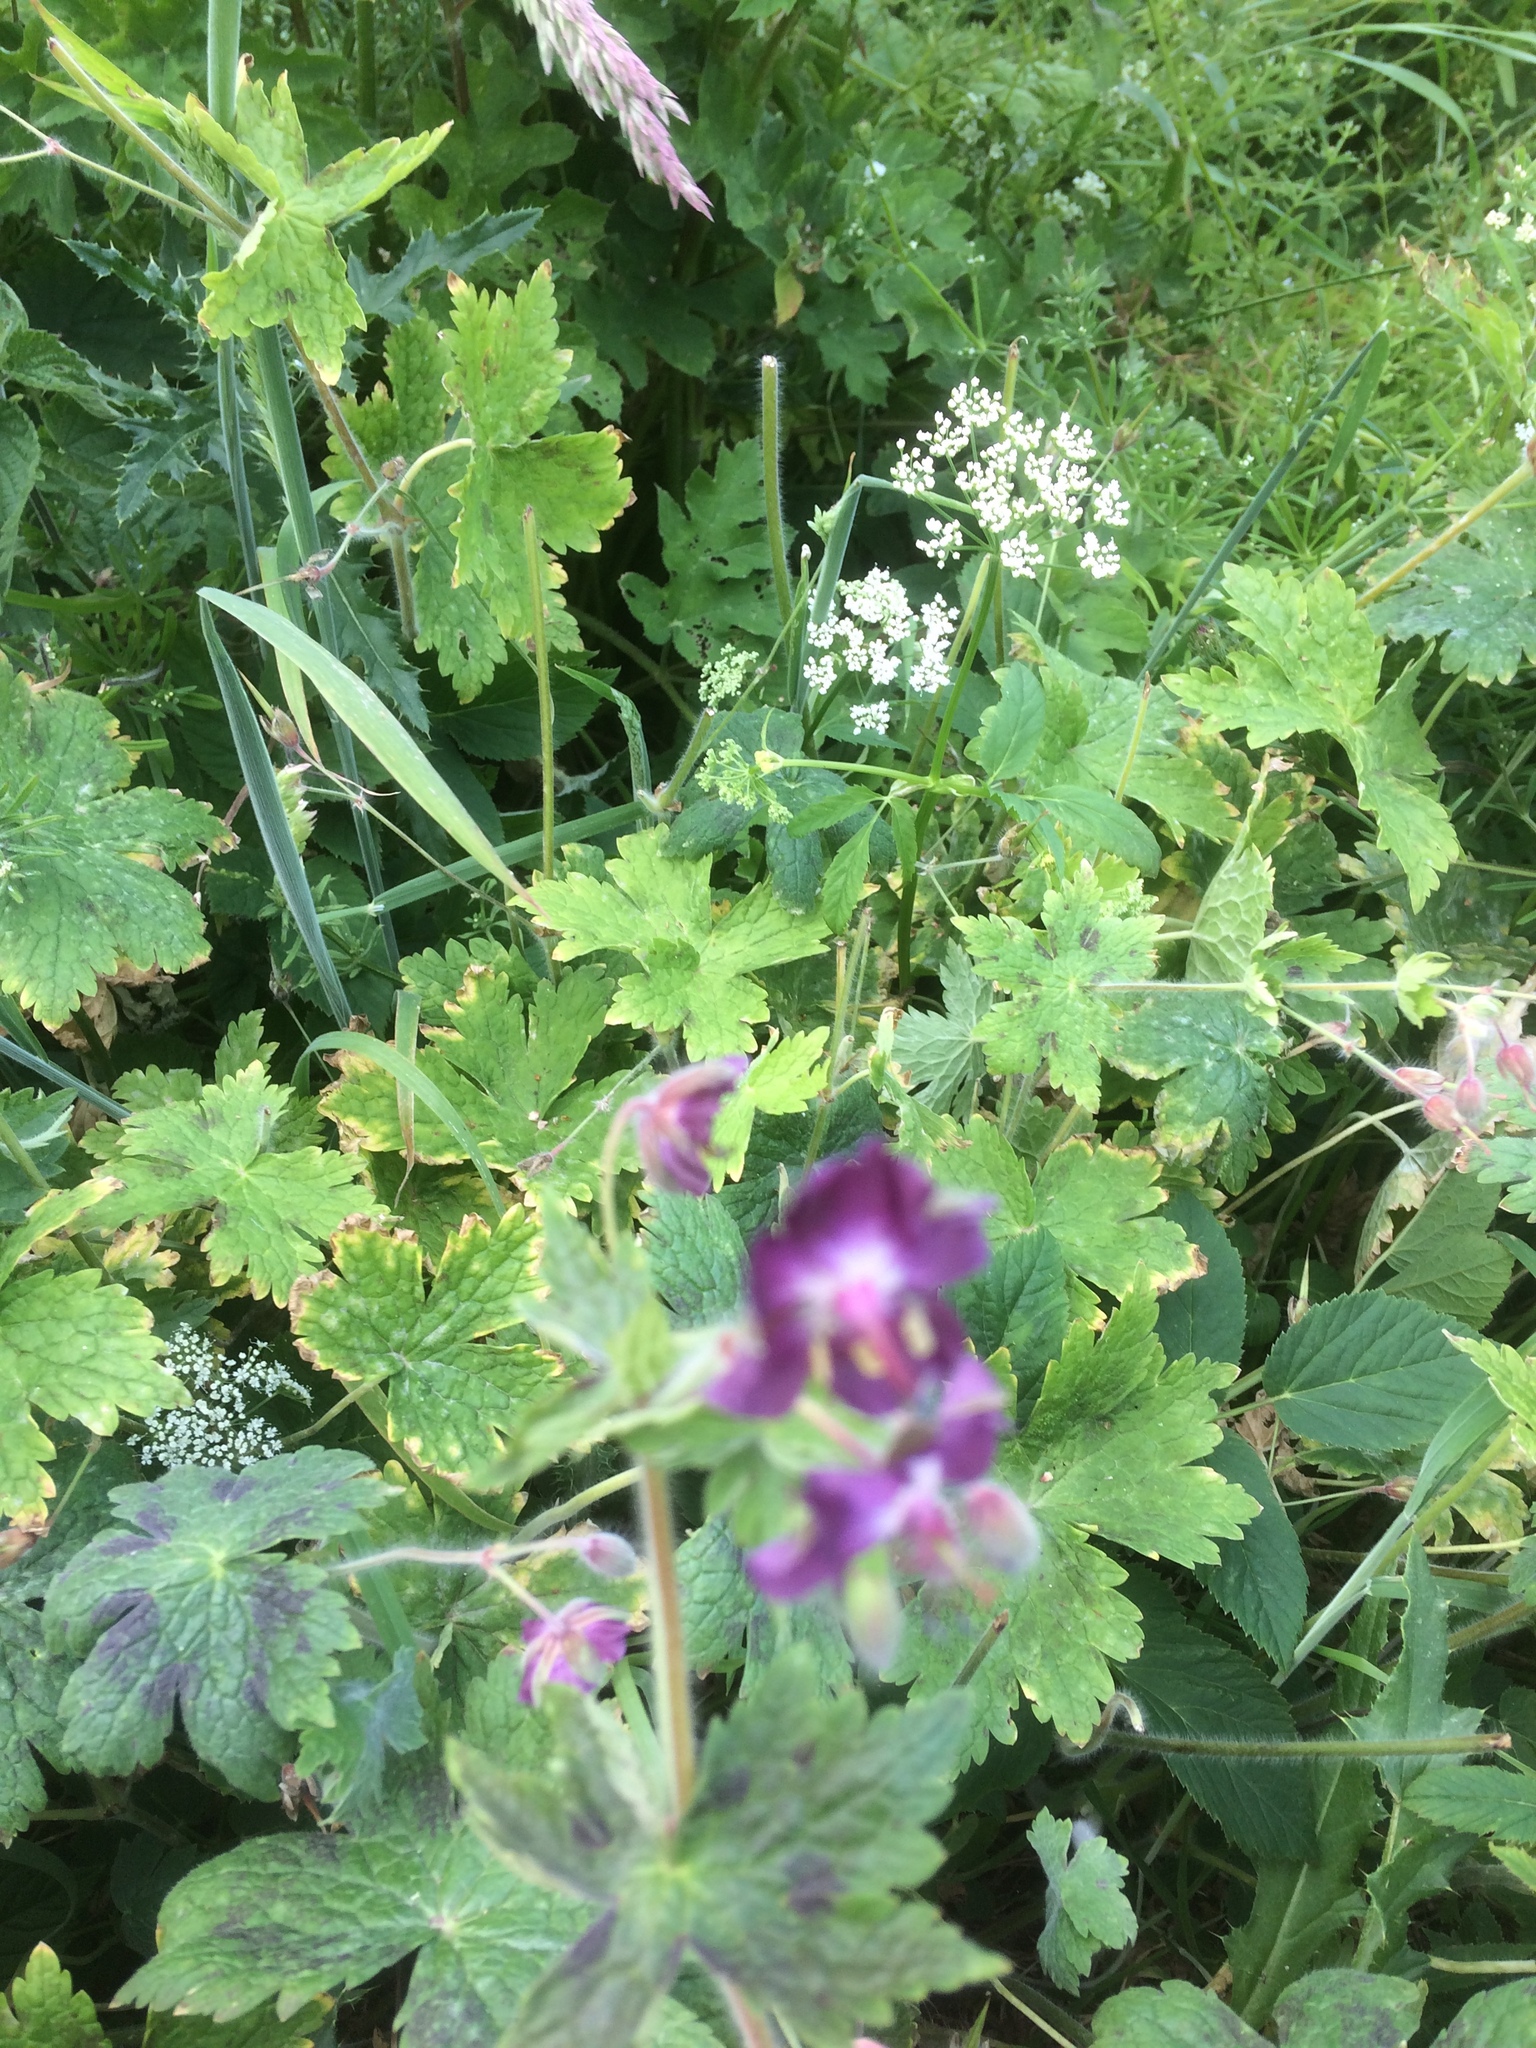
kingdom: Plantae
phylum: Tracheophyta
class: Magnoliopsida
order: Geraniales
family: Geraniaceae
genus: Geranium
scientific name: Geranium phaeum
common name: Dusky crane's-bill
